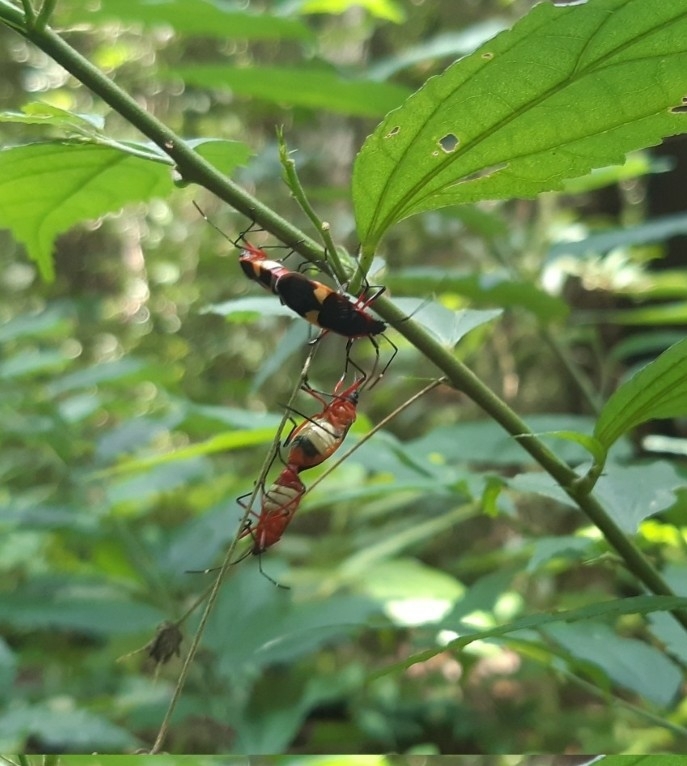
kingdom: Animalia
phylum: Arthropoda
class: Insecta
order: Hemiptera
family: Pyrrhocoridae
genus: Dysdercus
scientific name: Dysdercus albofasciatus
